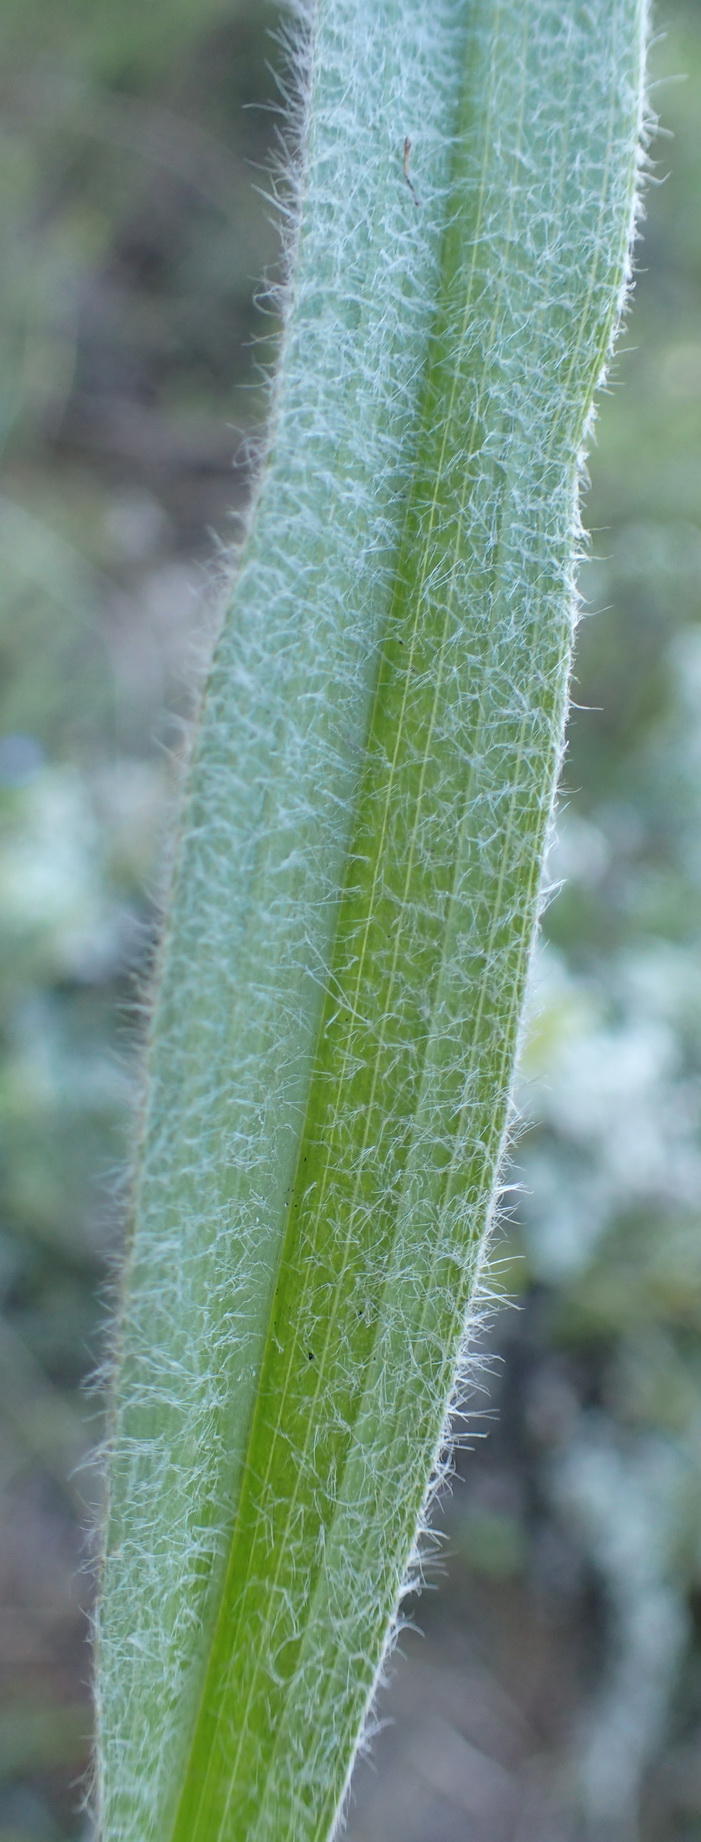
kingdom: Plantae
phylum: Tracheophyta
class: Liliopsida
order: Asparagales
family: Hypoxidaceae
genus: Hypoxis
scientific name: Hypoxis sobolifera
